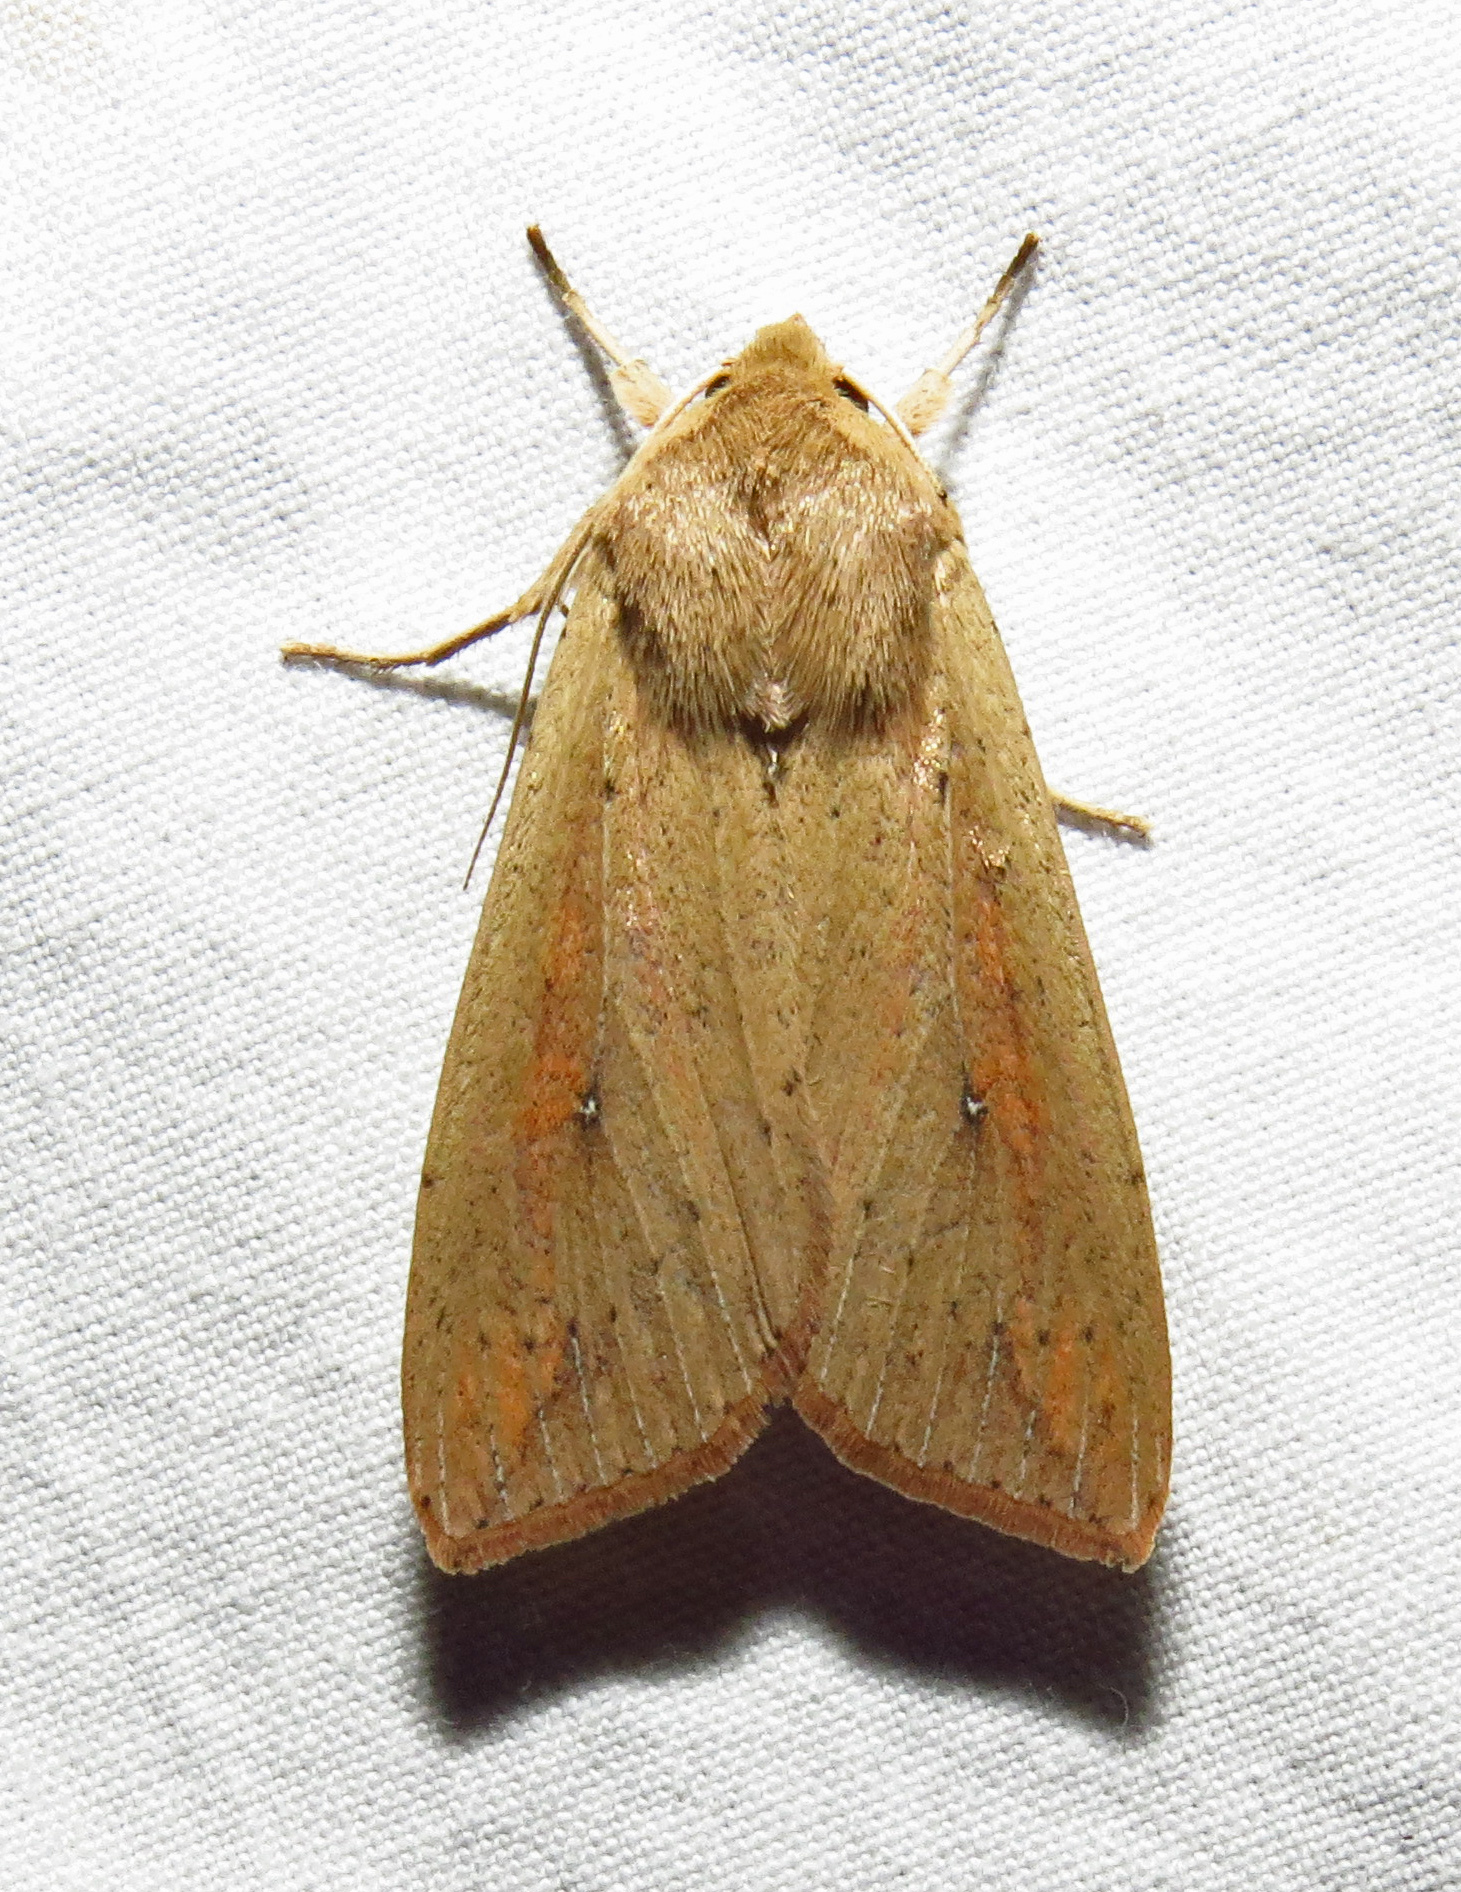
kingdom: Animalia
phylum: Arthropoda
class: Insecta
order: Lepidoptera
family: Noctuidae
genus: Mythimna
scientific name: Mythimna unipuncta
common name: White-speck
